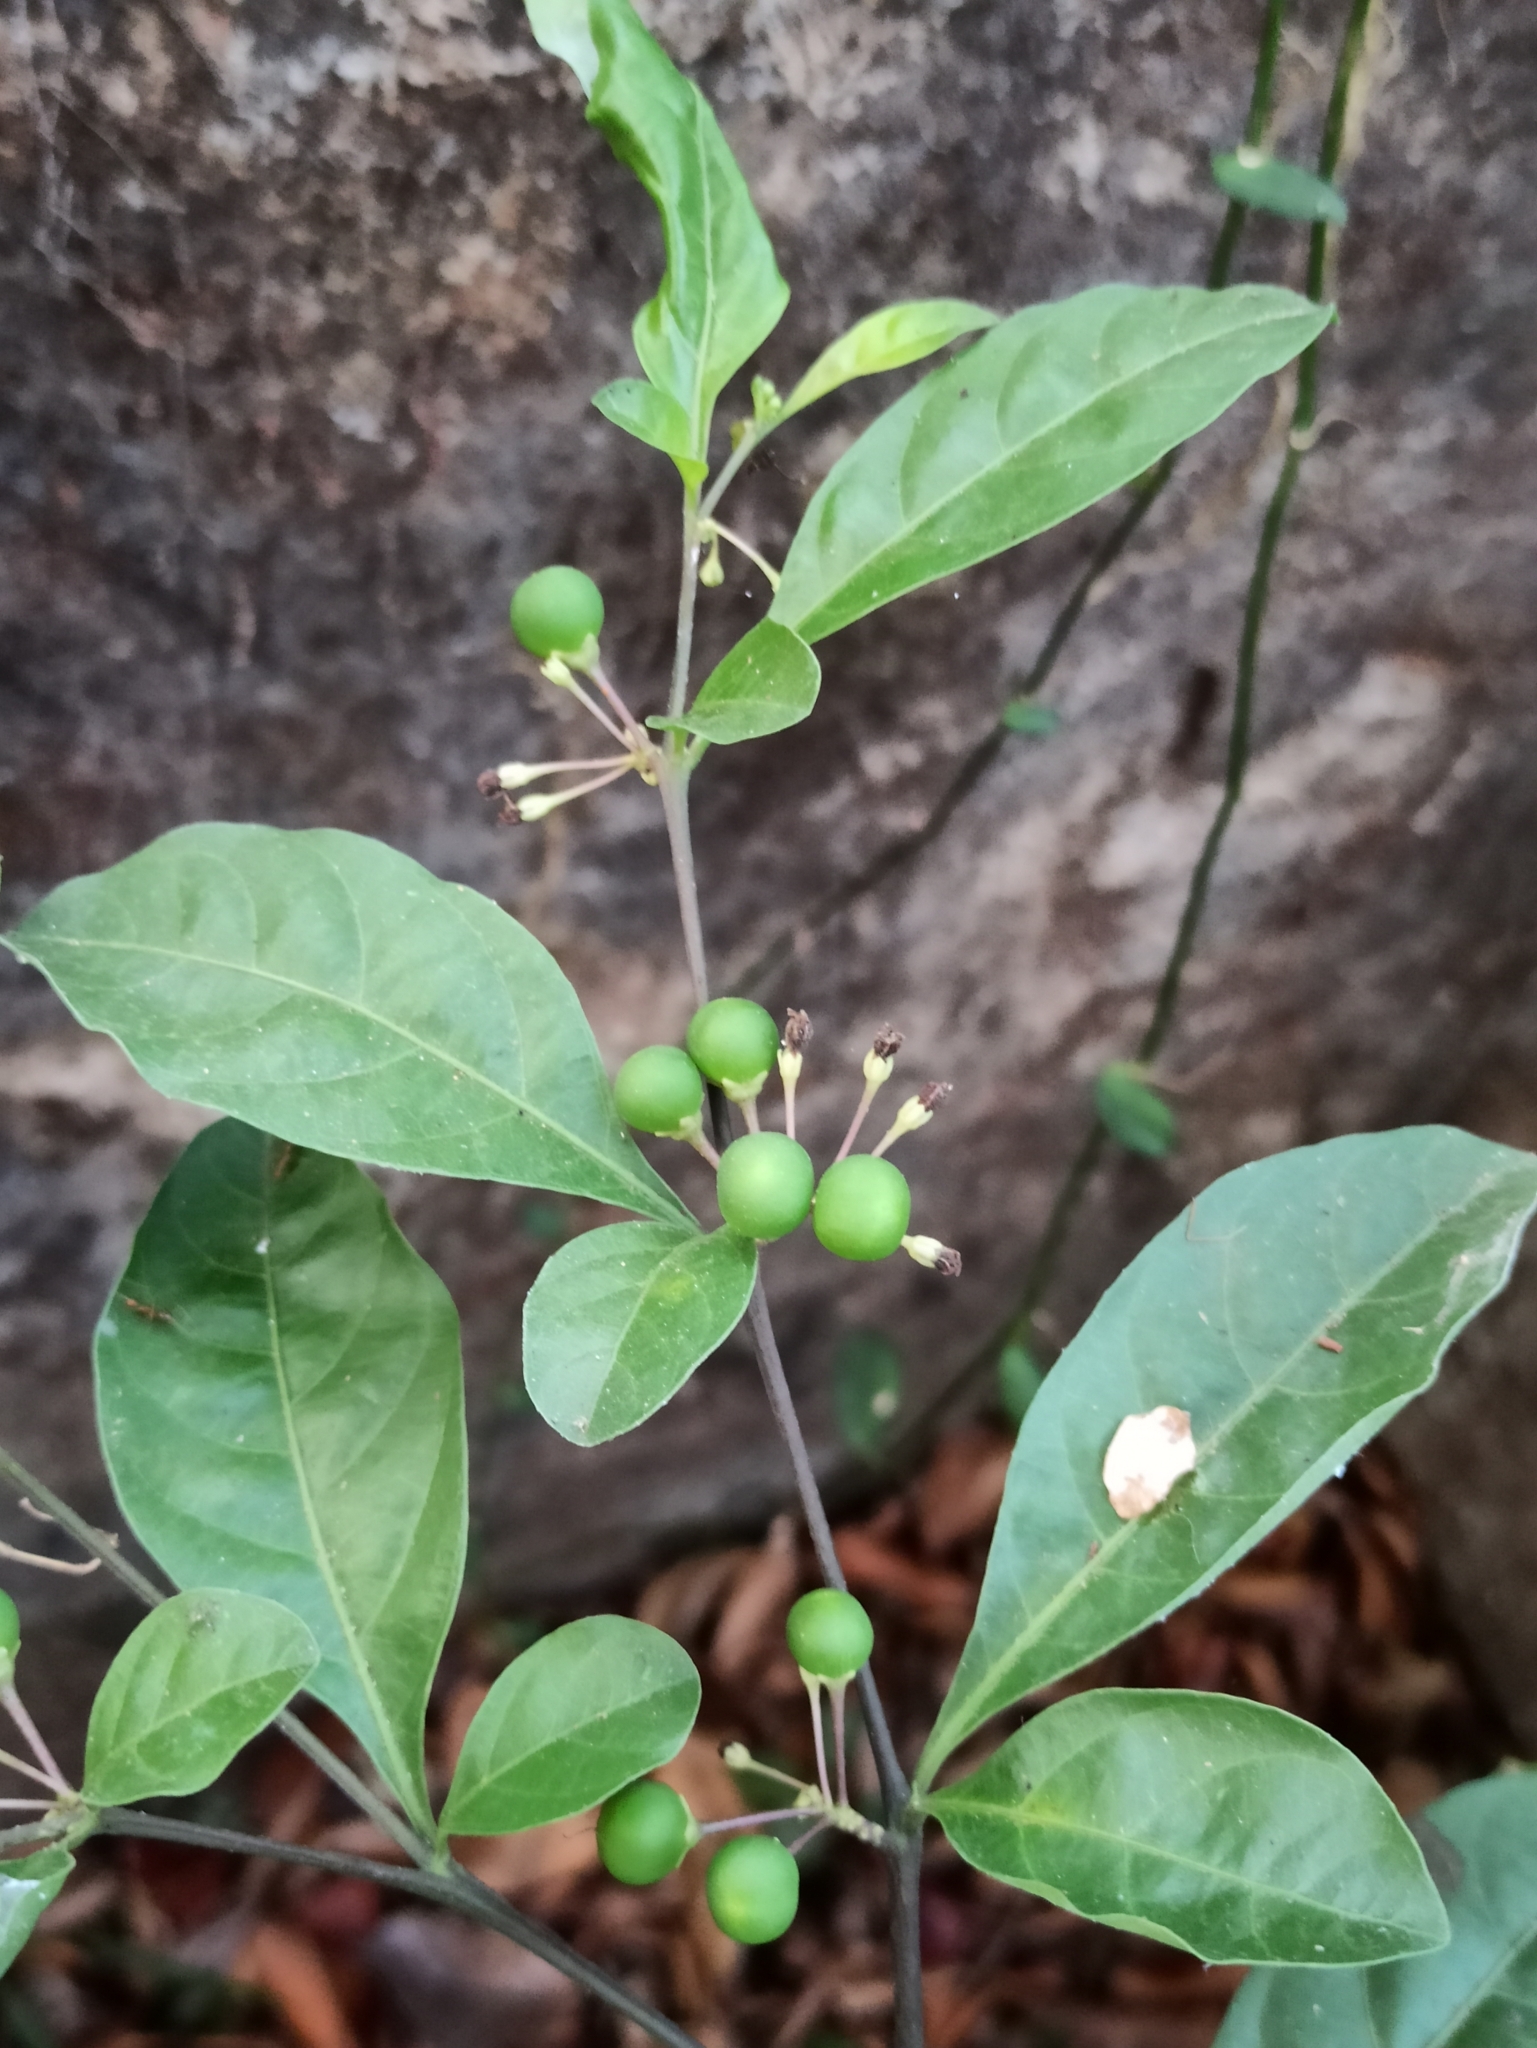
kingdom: Plantae
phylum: Tracheophyta
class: Magnoliopsida
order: Solanales
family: Solanaceae
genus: Solanum
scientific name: Solanum diphyllum
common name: Twoleaf nightshade
